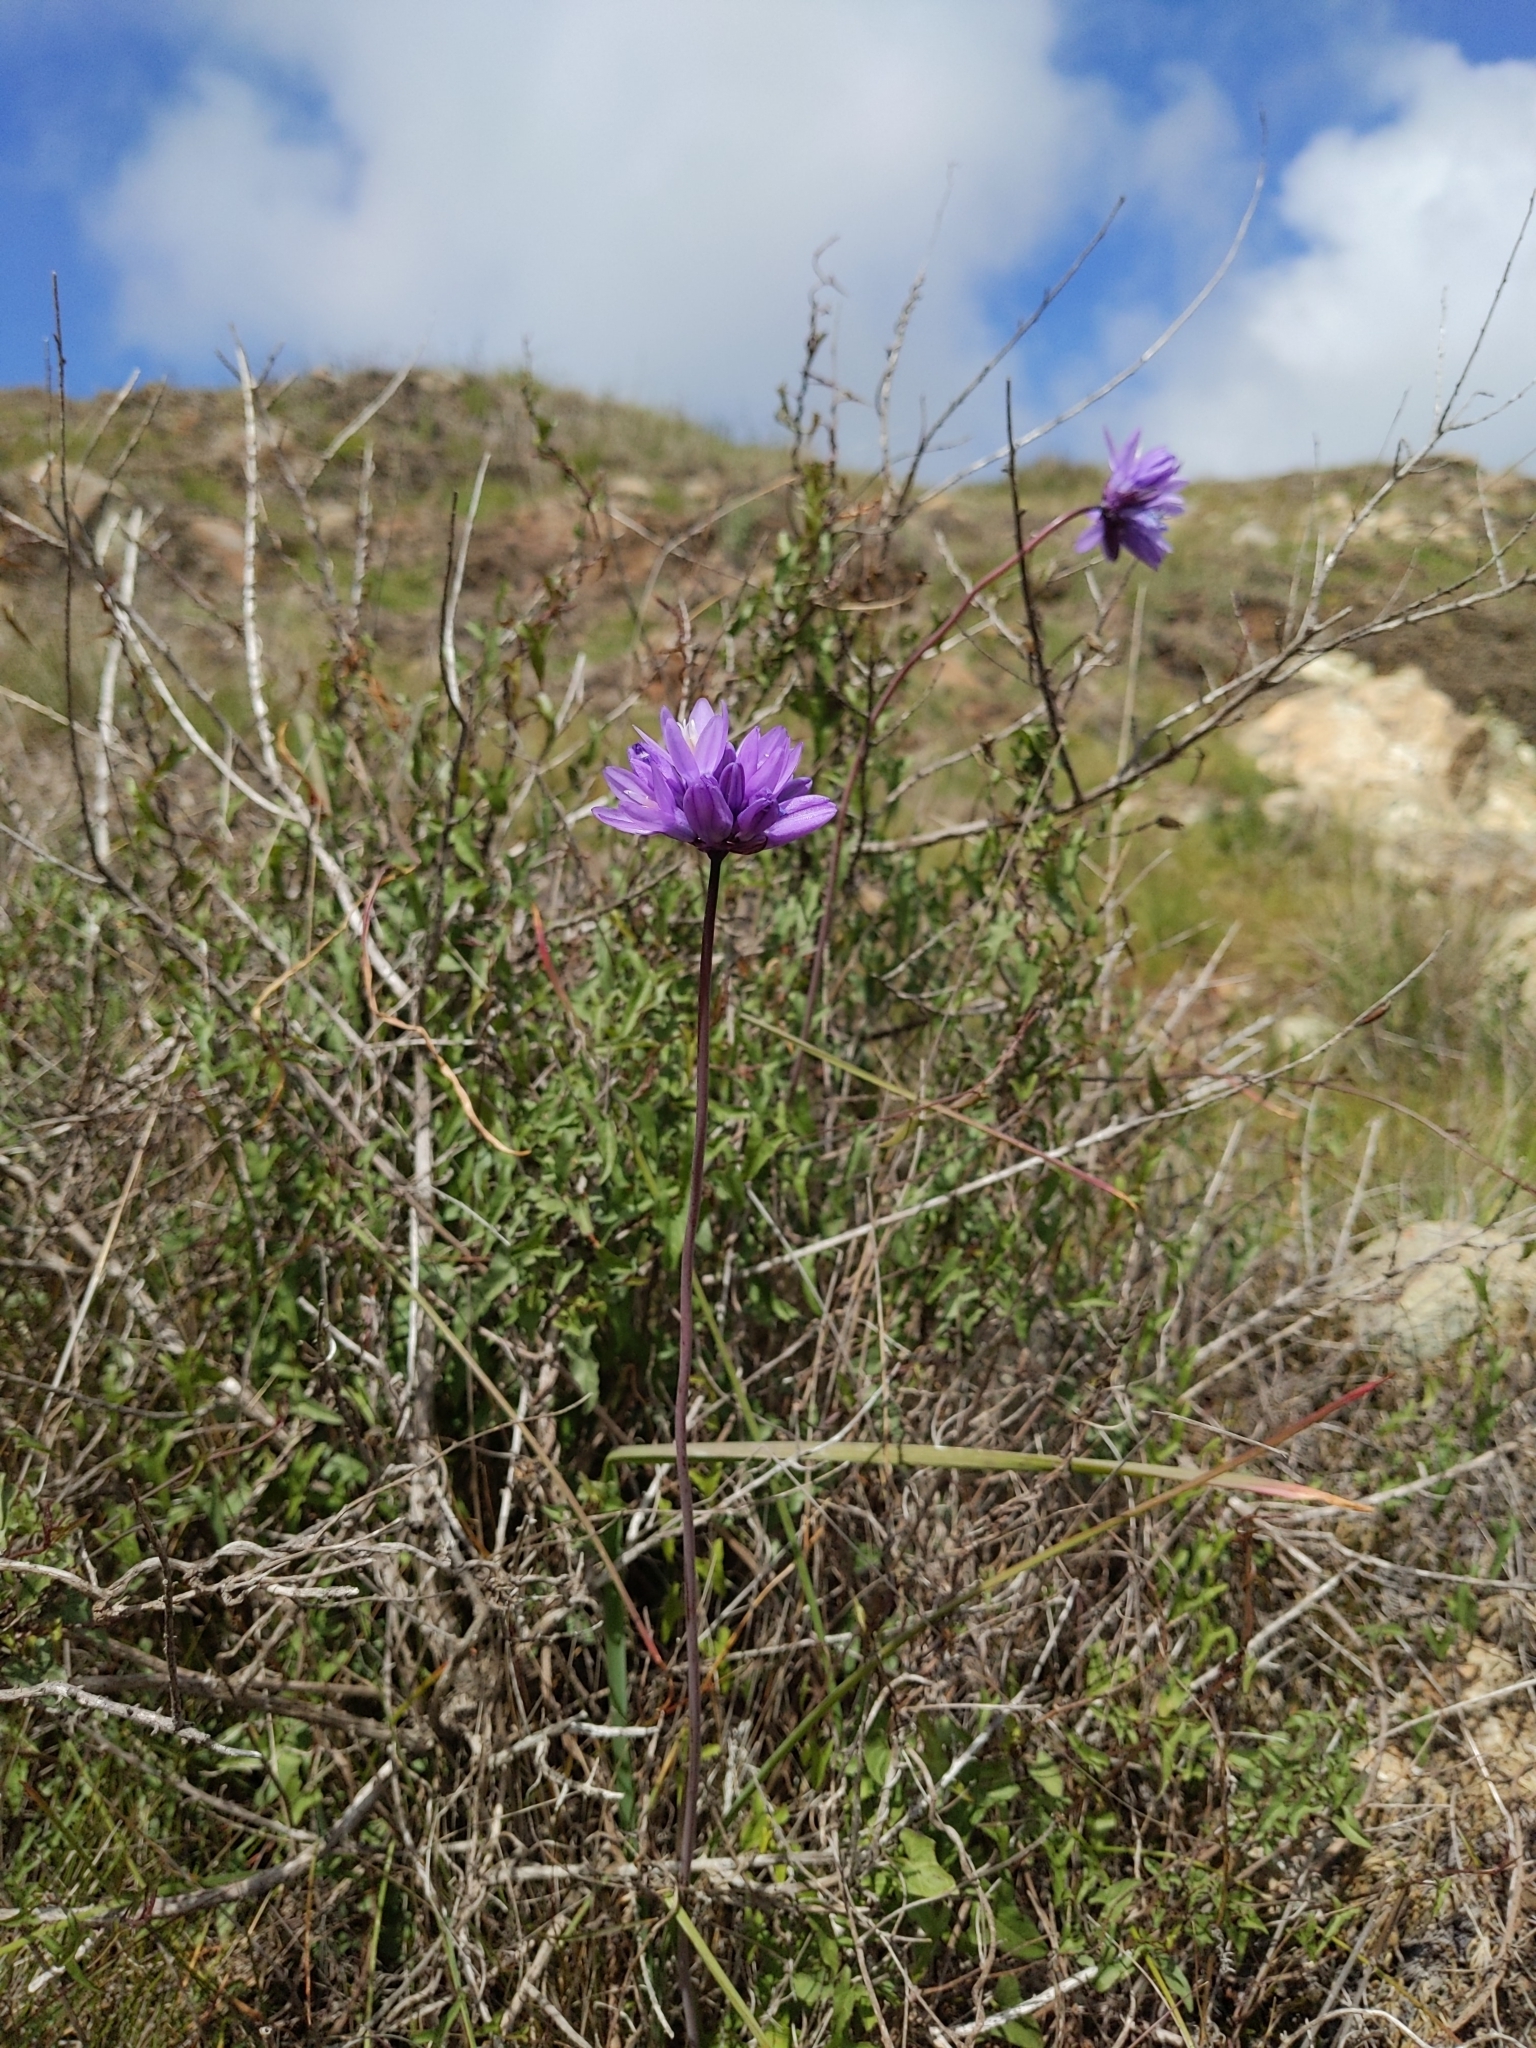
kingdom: Plantae
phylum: Tracheophyta
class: Liliopsida
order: Asparagales
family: Asparagaceae
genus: Dipterostemon
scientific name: Dipterostemon capitatus
